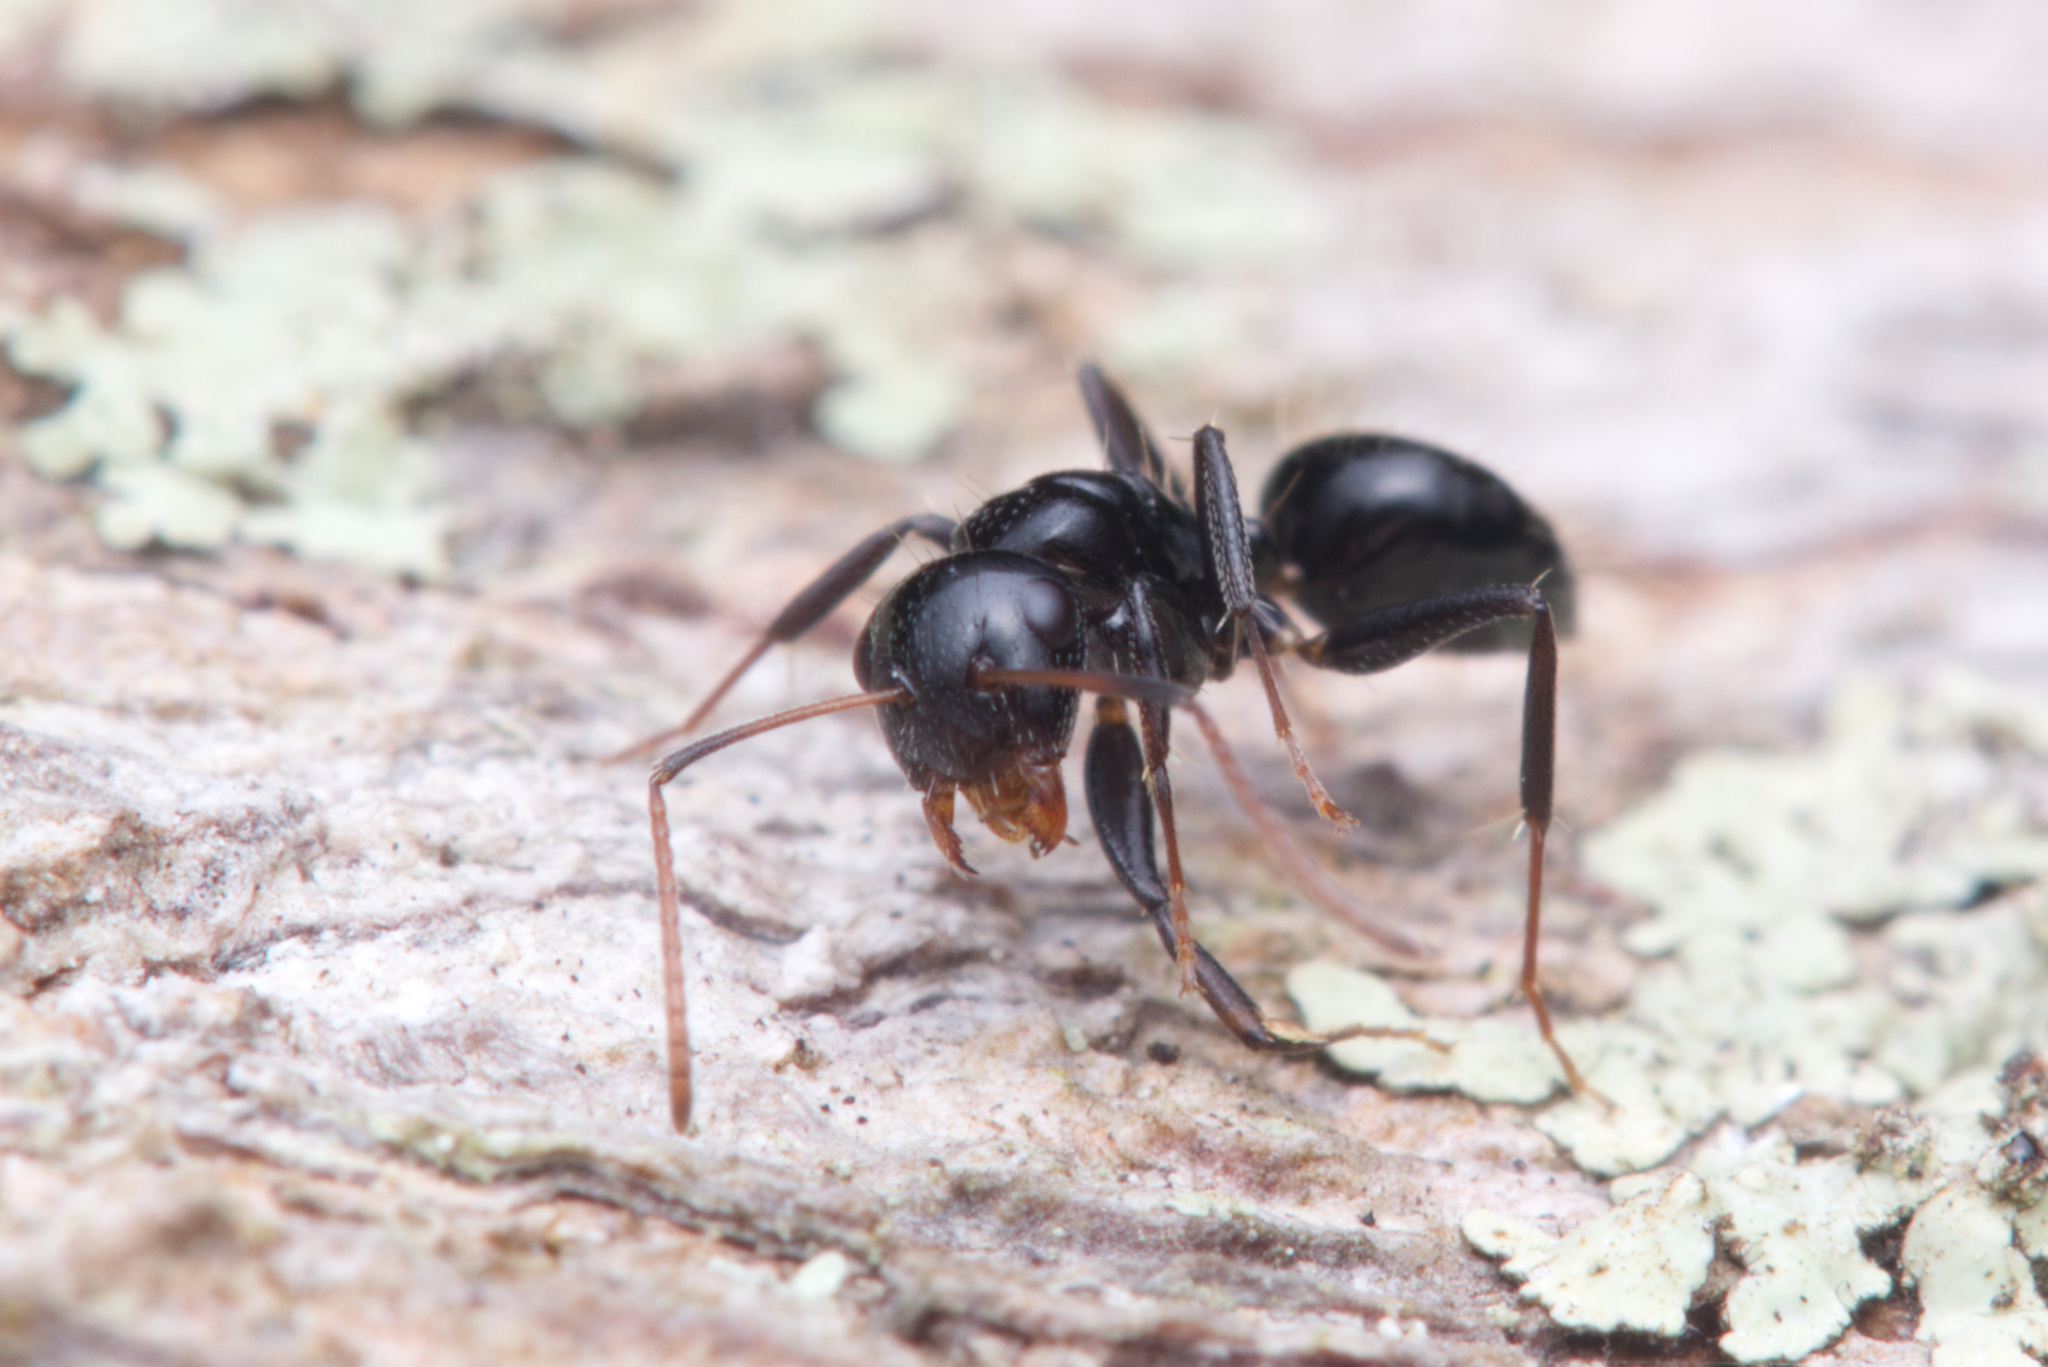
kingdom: Animalia
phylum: Arthropoda
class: Insecta
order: Hymenoptera
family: Formicidae
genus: Camponotus
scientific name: Camponotus mackayensis
